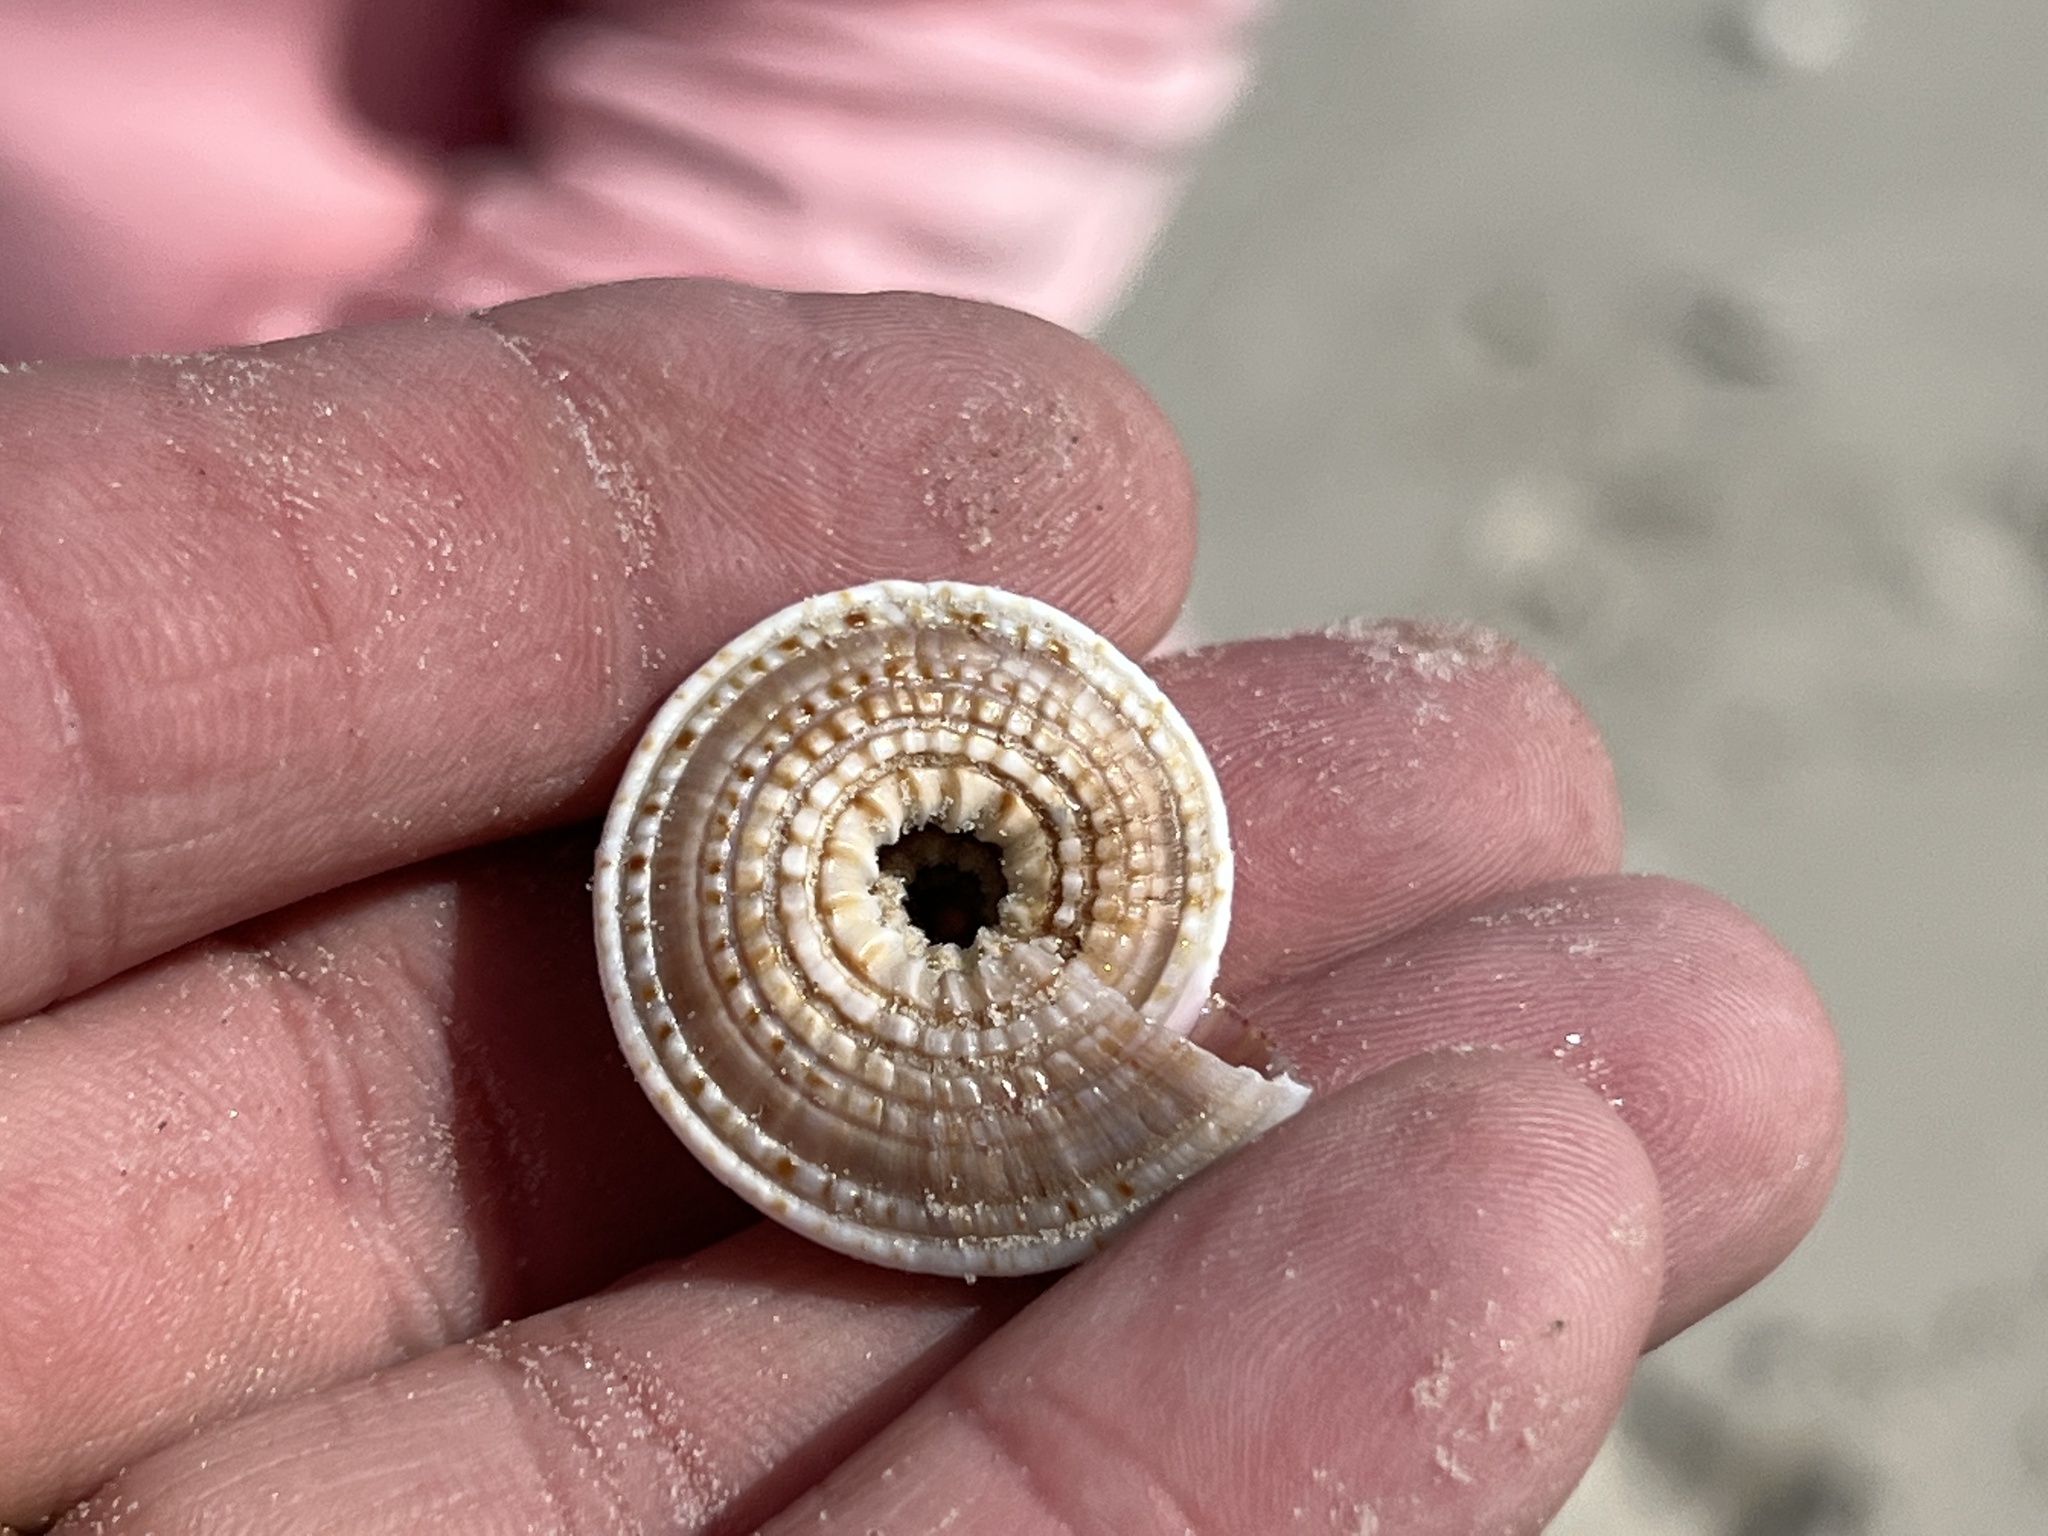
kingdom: Animalia
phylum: Mollusca
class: Gastropoda
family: Architectonicidae
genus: Architectonica
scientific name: Architectonica nobilis
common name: Common sundial
